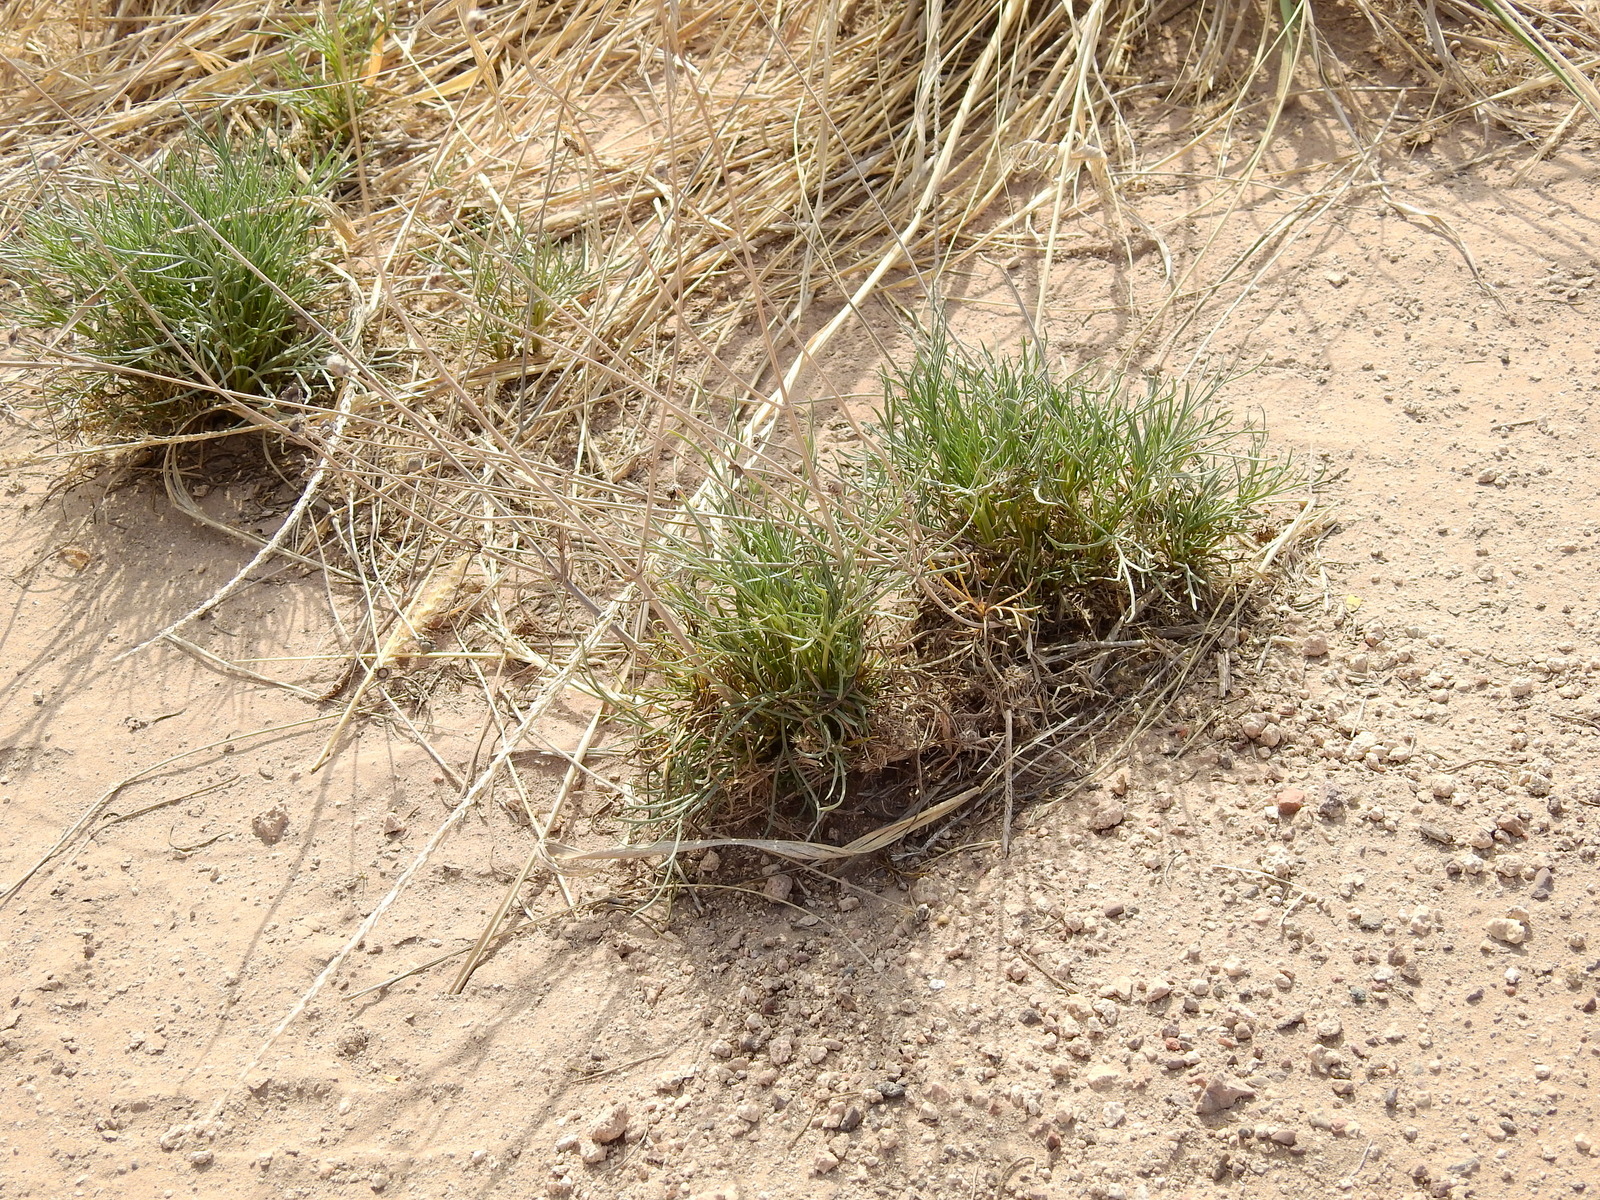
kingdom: Plantae
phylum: Tracheophyta
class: Magnoliopsida
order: Asterales
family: Asteraceae
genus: Thelesperma
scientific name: Thelesperma megapotamicum
